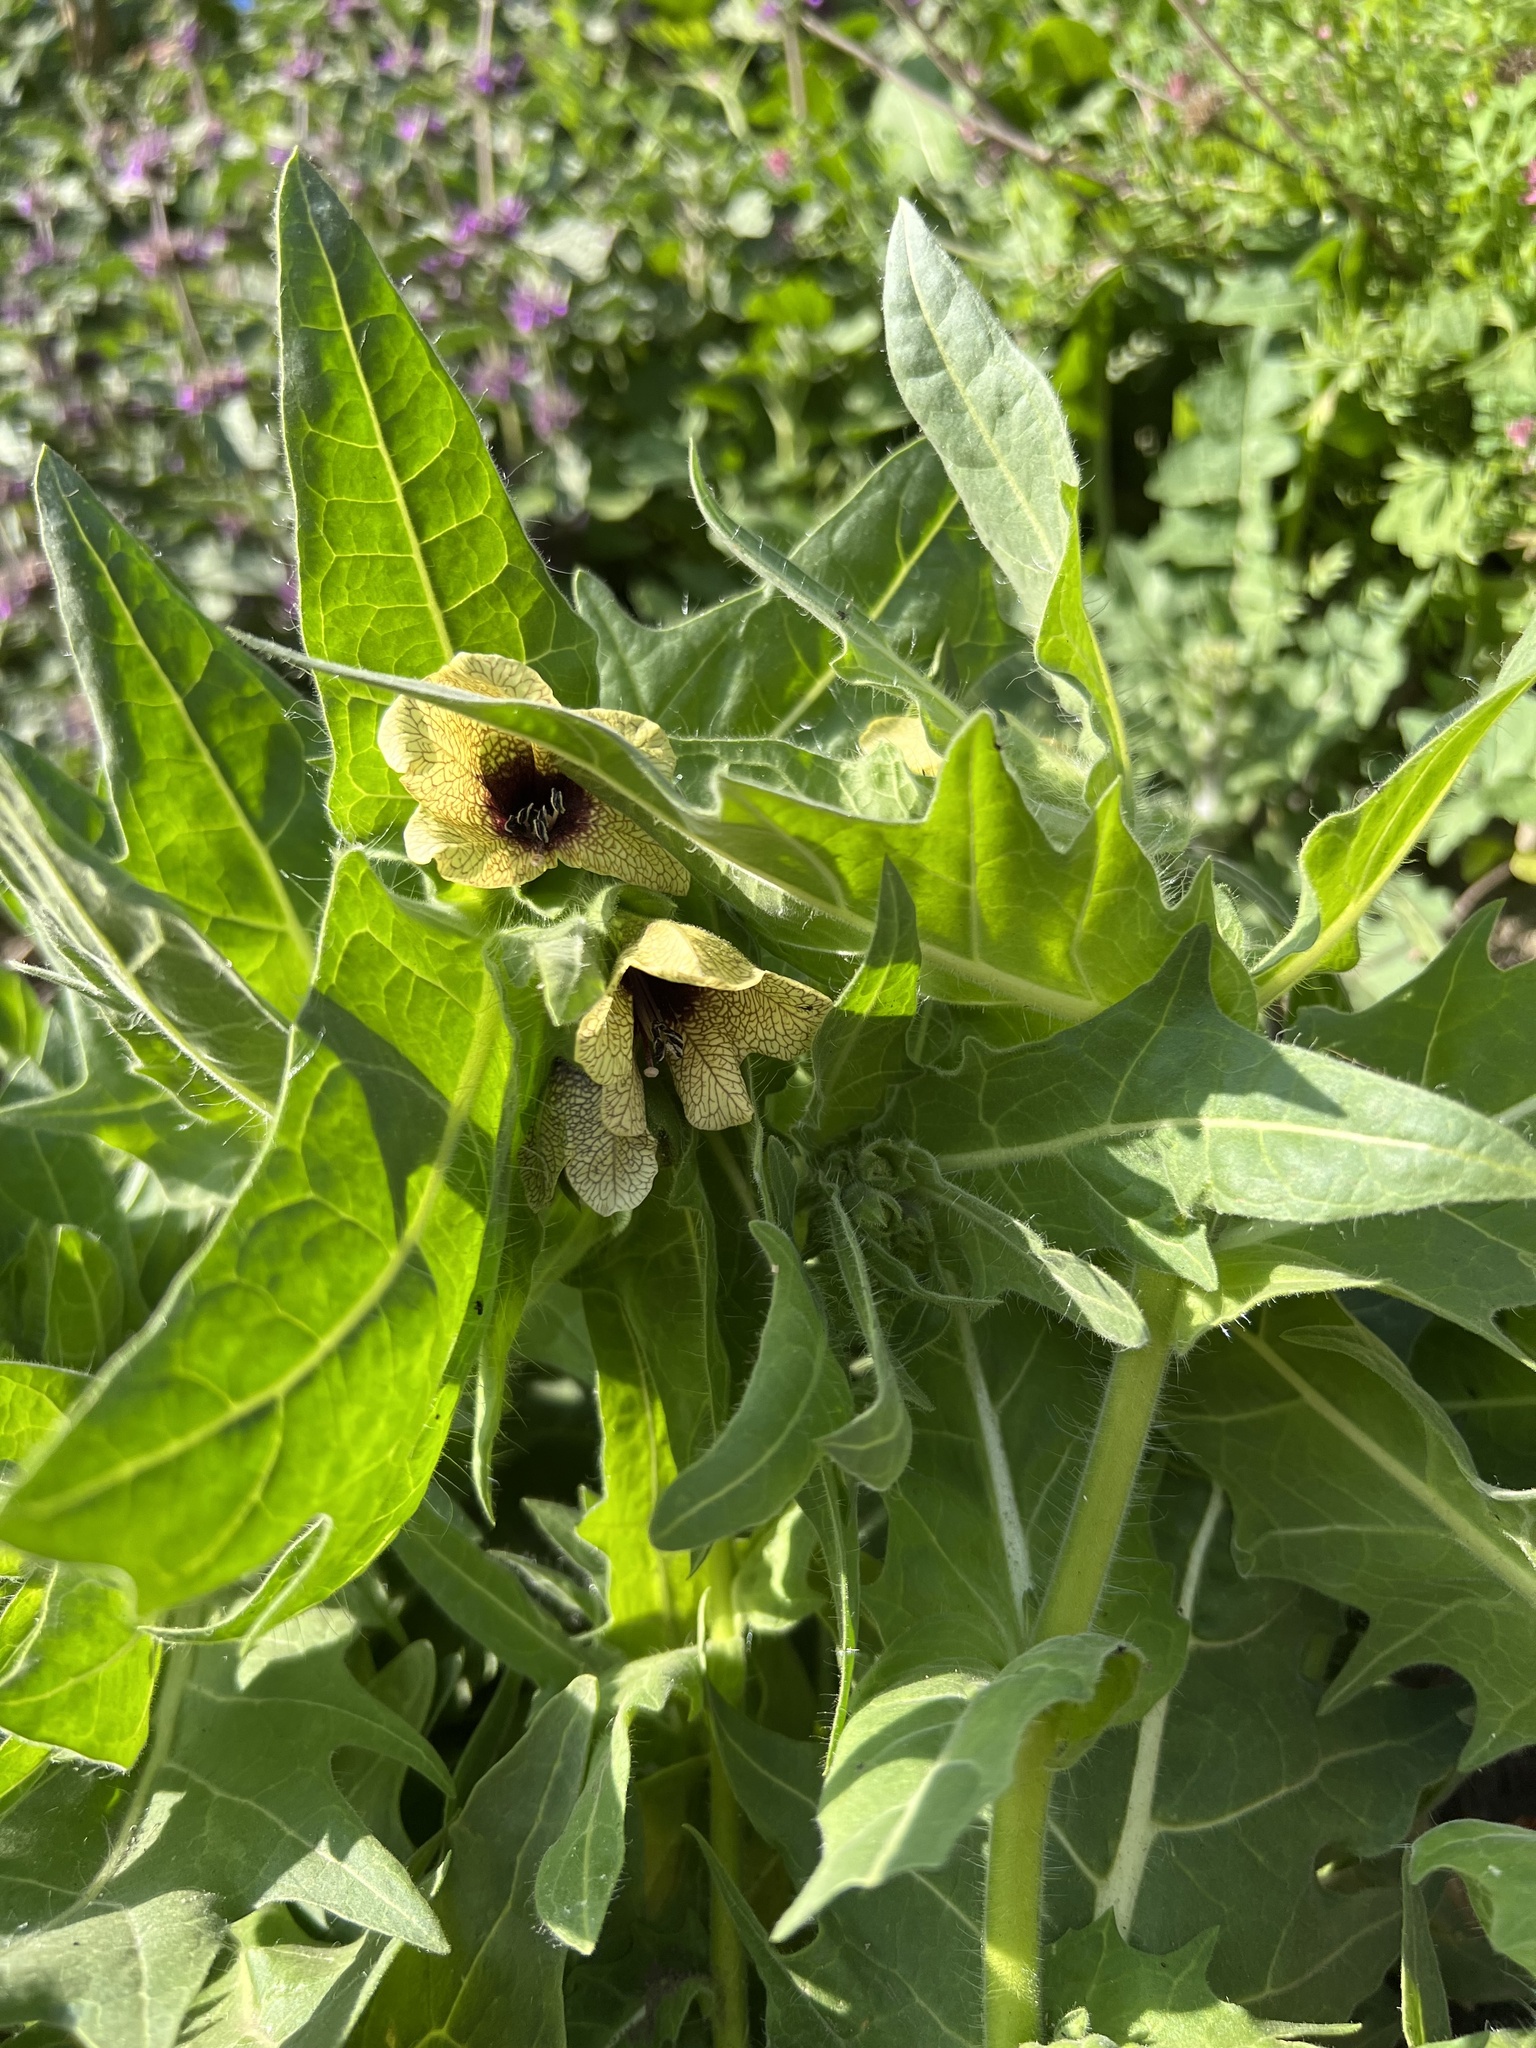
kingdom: Plantae
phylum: Tracheophyta
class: Magnoliopsida
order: Solanales
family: Solanaceae
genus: Hyoscyamus
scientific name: Hyoscyamus niger
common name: Henbane
